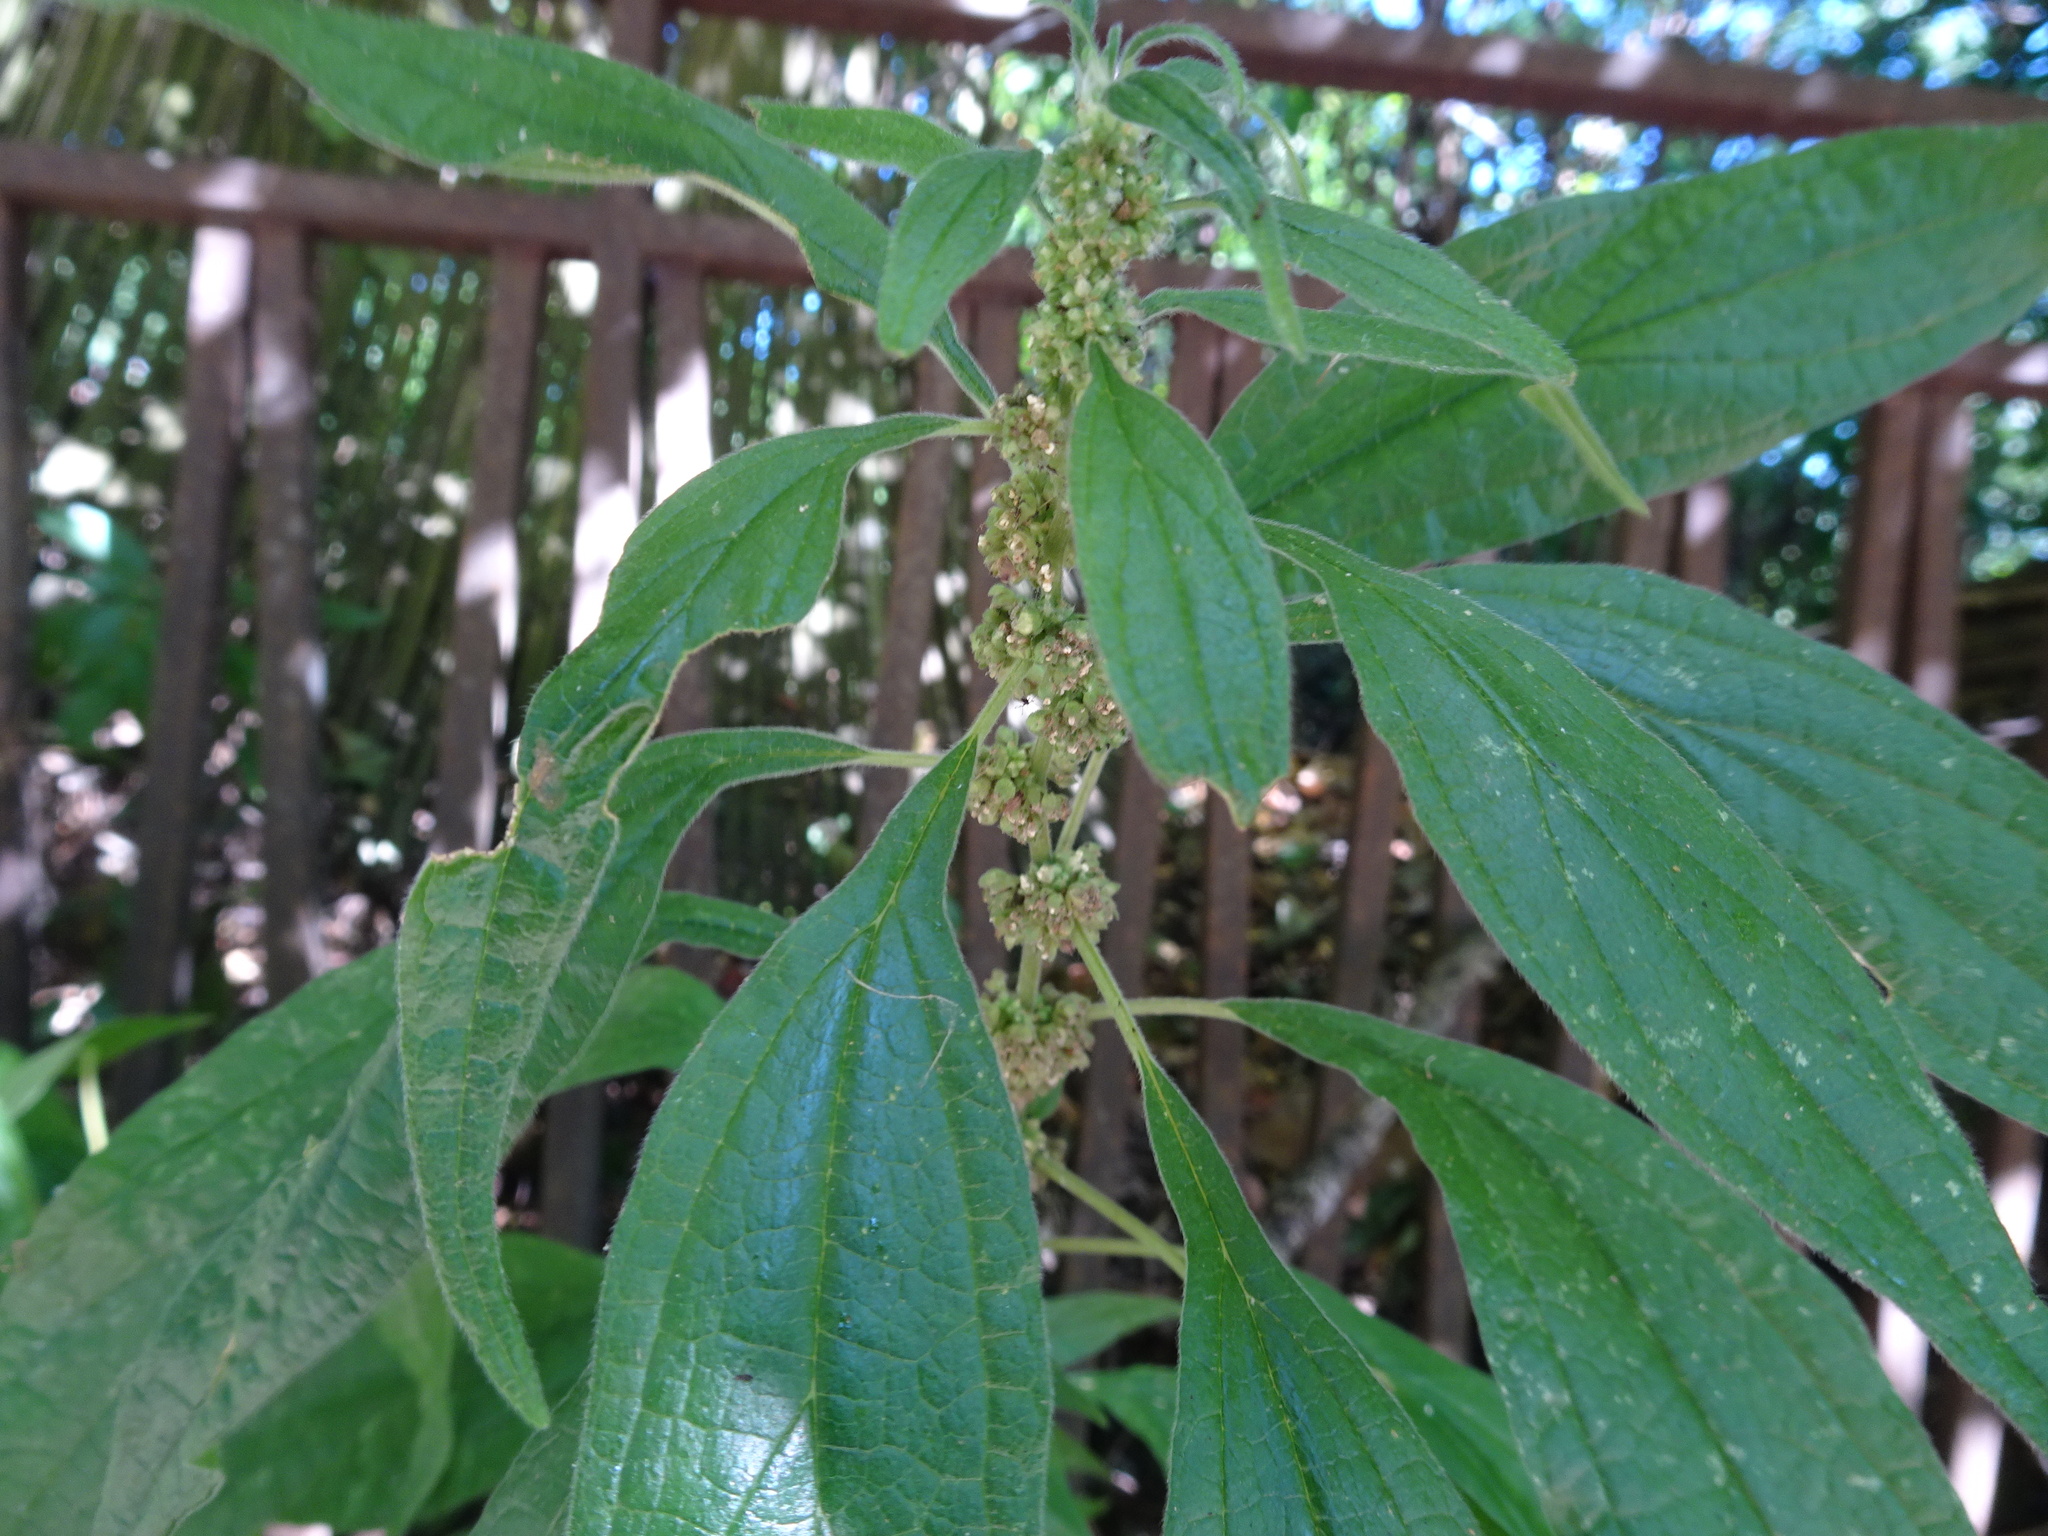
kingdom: Plantae
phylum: Tracheophyta
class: Magnoliopsida
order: Rosales
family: Urticaceae
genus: Parietaria
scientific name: Parietaria officinalis
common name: Eastern pellitory-of-the-wall
